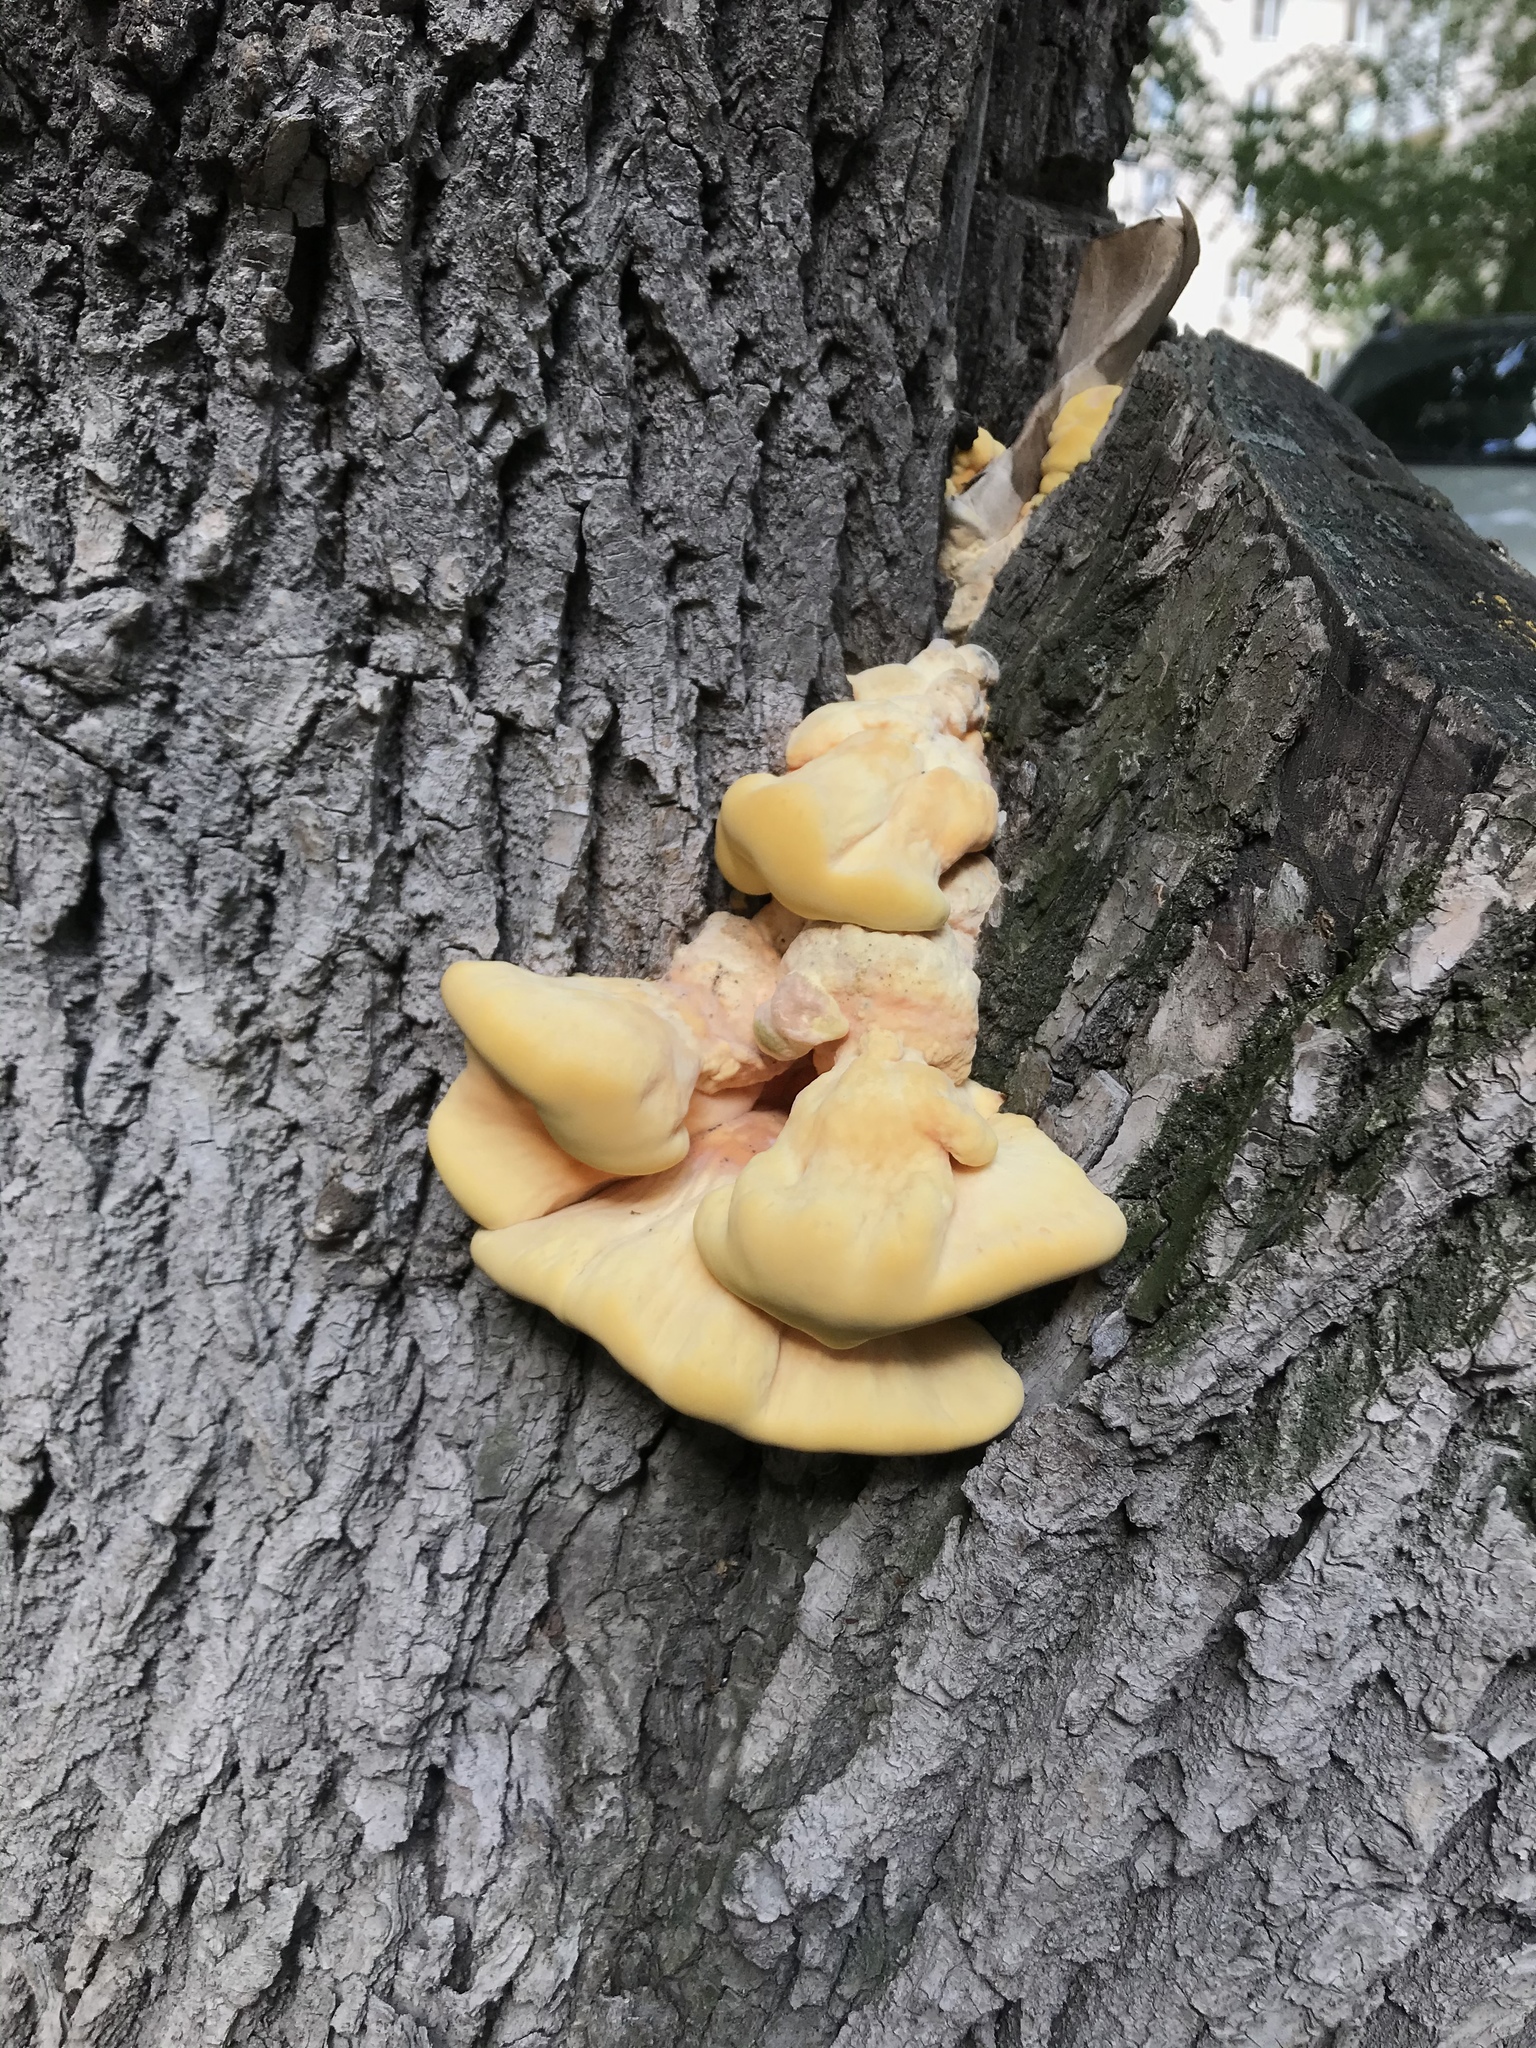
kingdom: Fungi
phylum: Basidiomycota
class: Agaricomycetes
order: Polyporales
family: Laetiporaceae
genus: Laetiporus
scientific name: Laetiporus sulphureus
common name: Chicken of the woods
